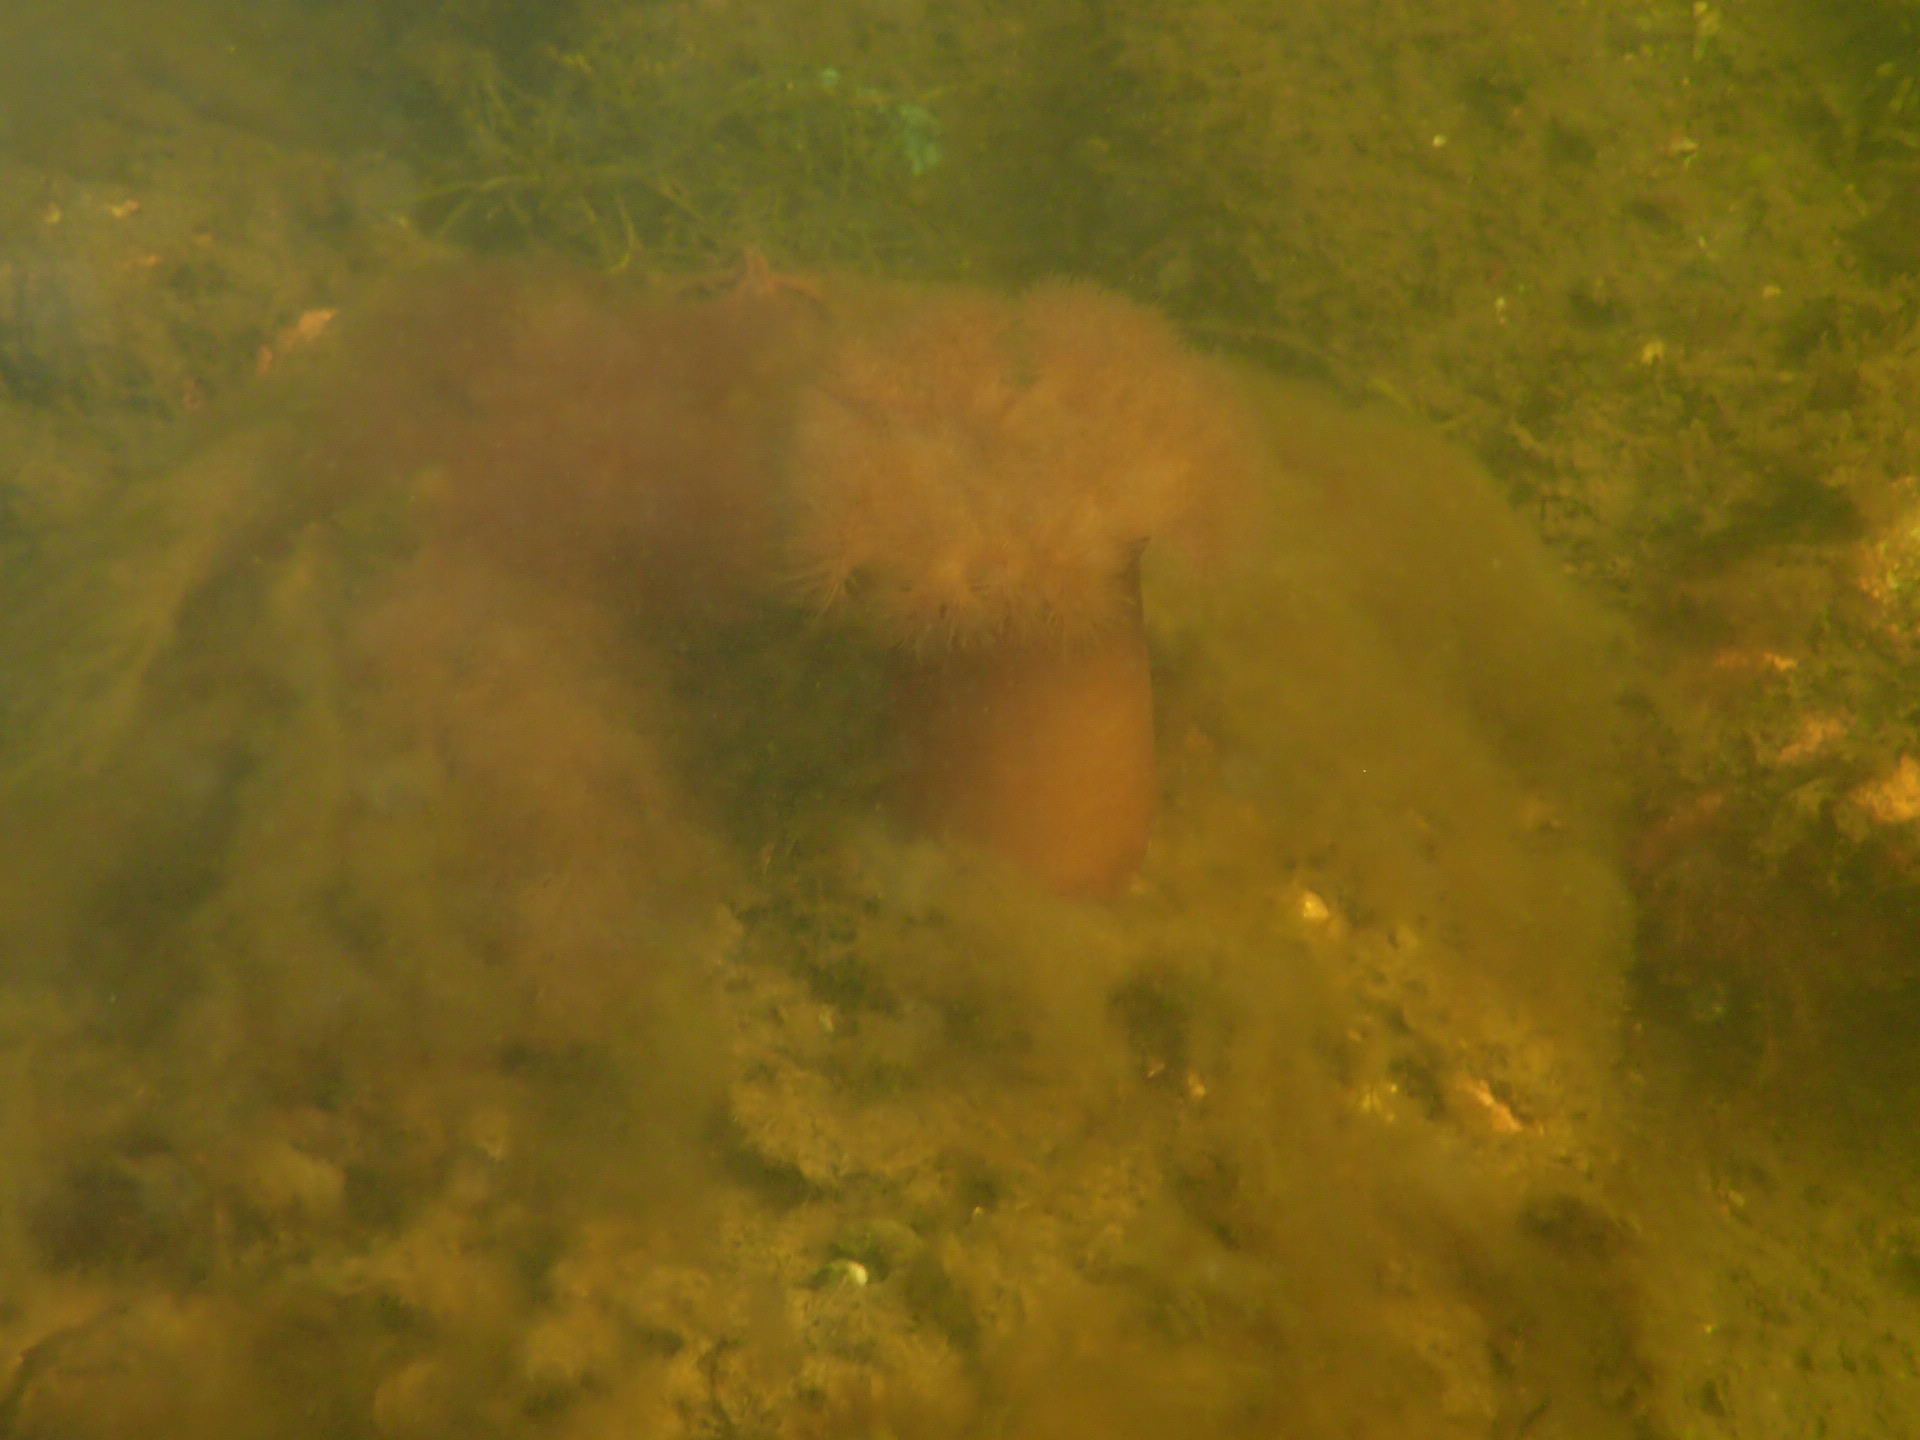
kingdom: Animalia
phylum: Cnidaria
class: Anthozoa
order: Actiniaria
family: Metridiidae
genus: Metridium
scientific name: Metridium senile
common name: Clonal plumose anemone
